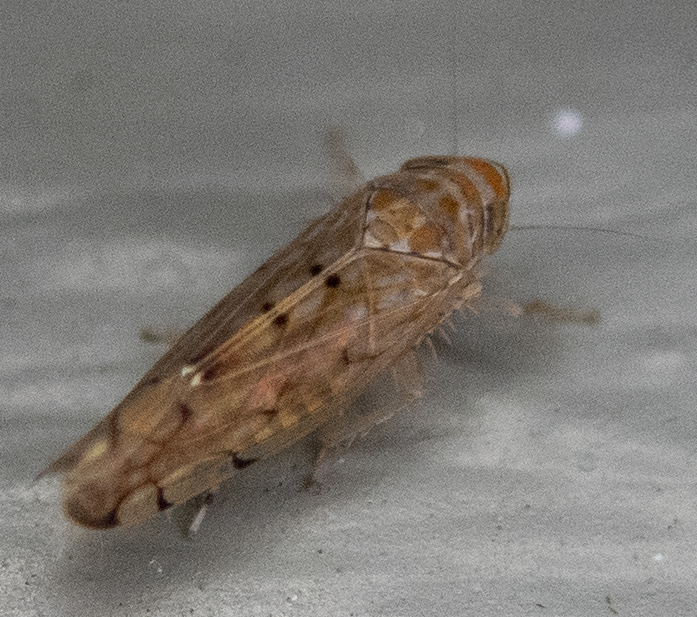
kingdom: Animalia
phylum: Arthropoda
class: Insecta
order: Hemiptera
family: Cicadellidae
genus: Osbornellus
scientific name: Osbornellus
